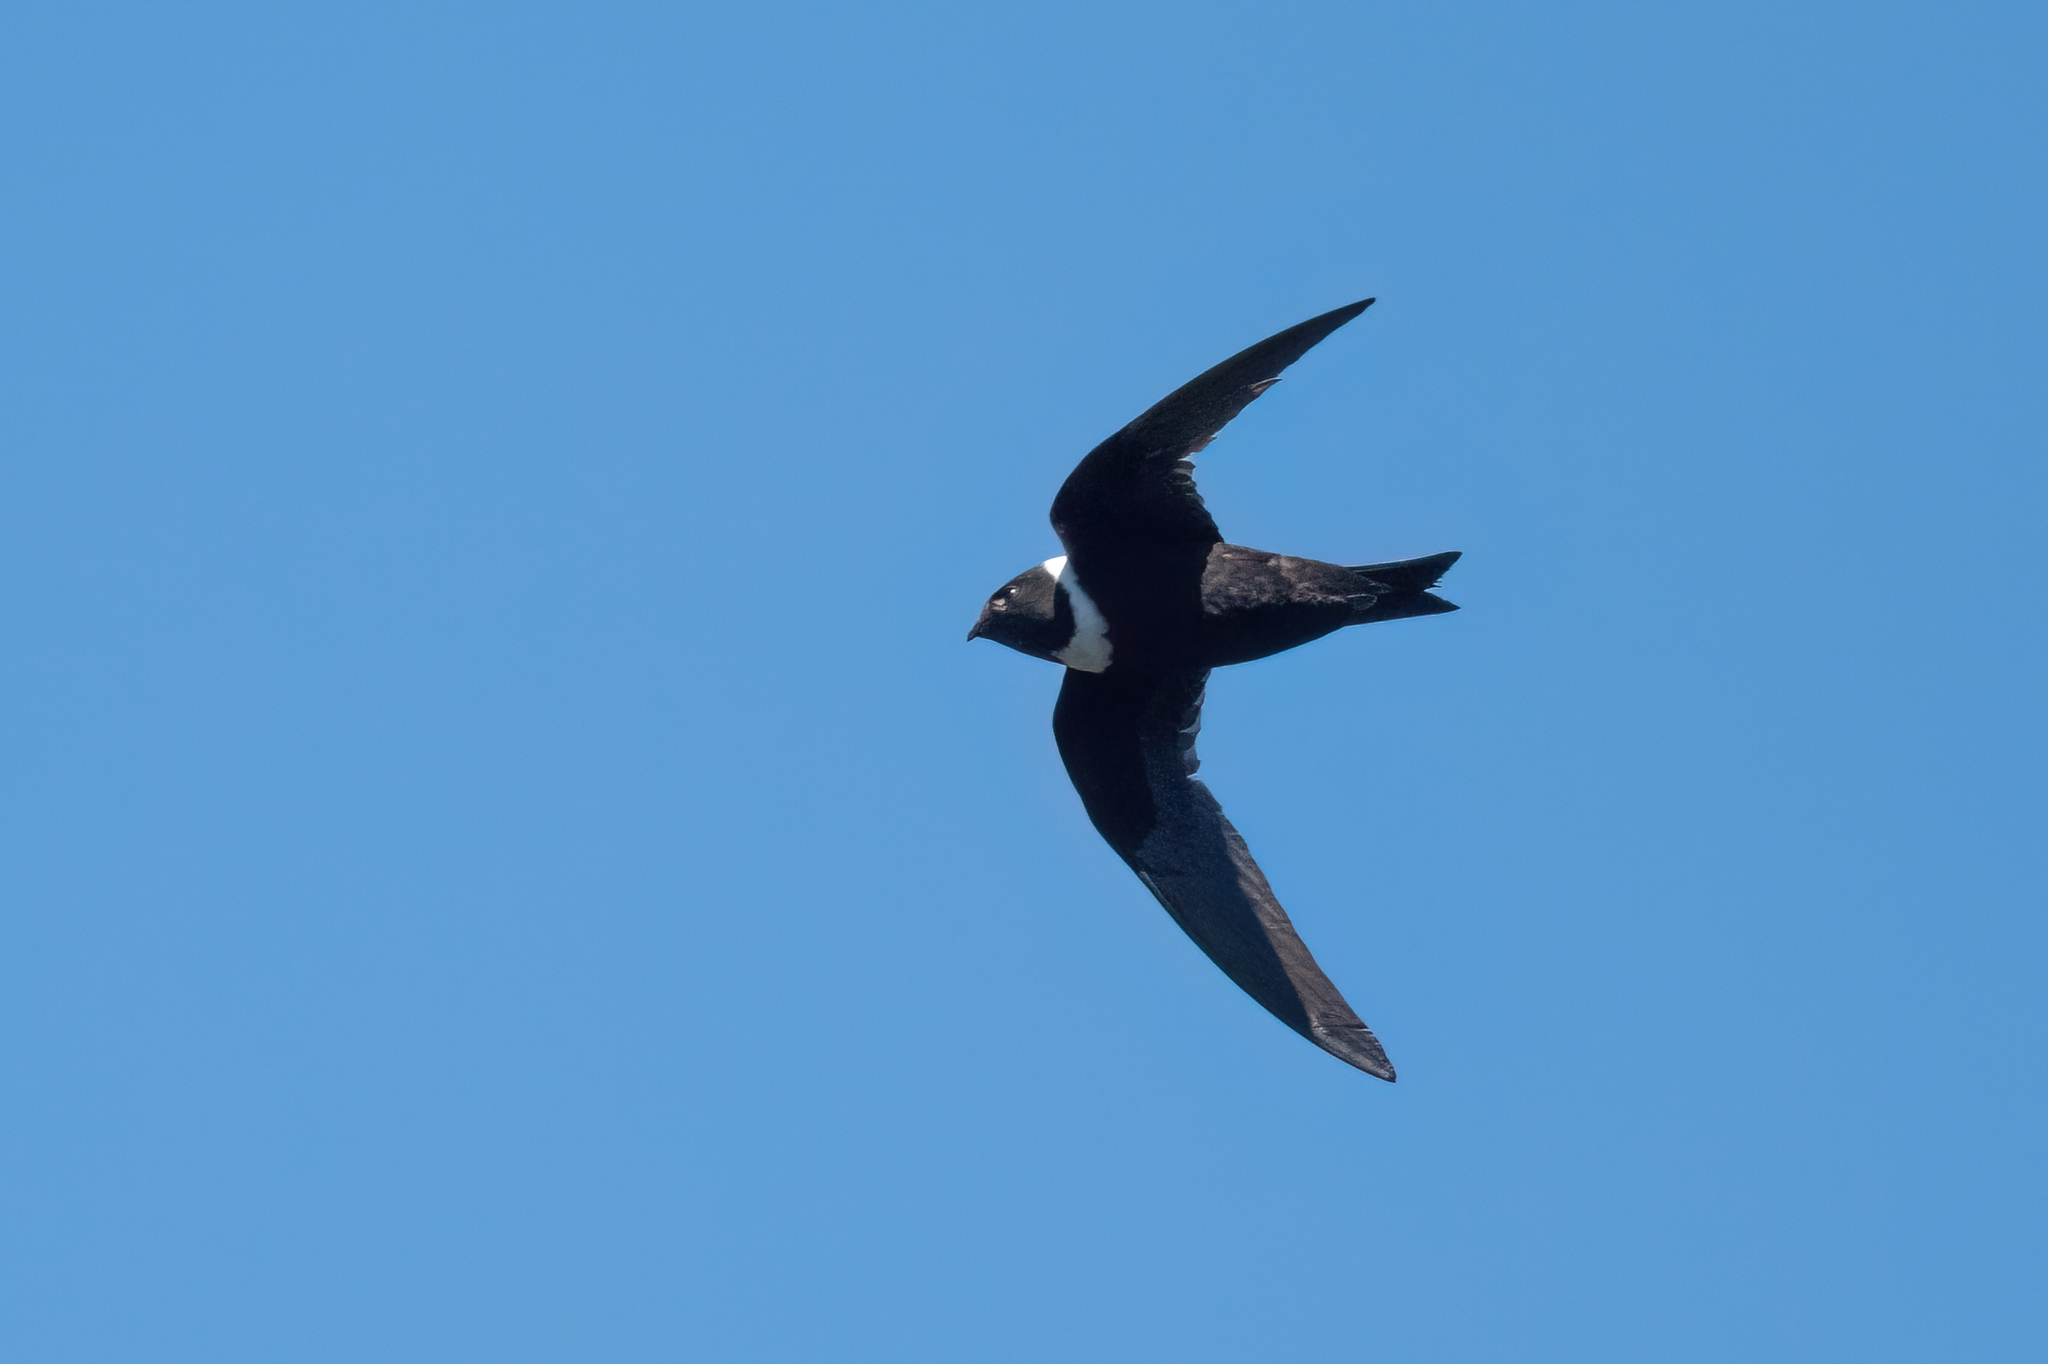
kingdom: Animalia
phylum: Chordata
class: Aves
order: Apodiformes
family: Apodidae
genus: Streptoprocne
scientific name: Streptoprocne zonaris
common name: White-collared swift
